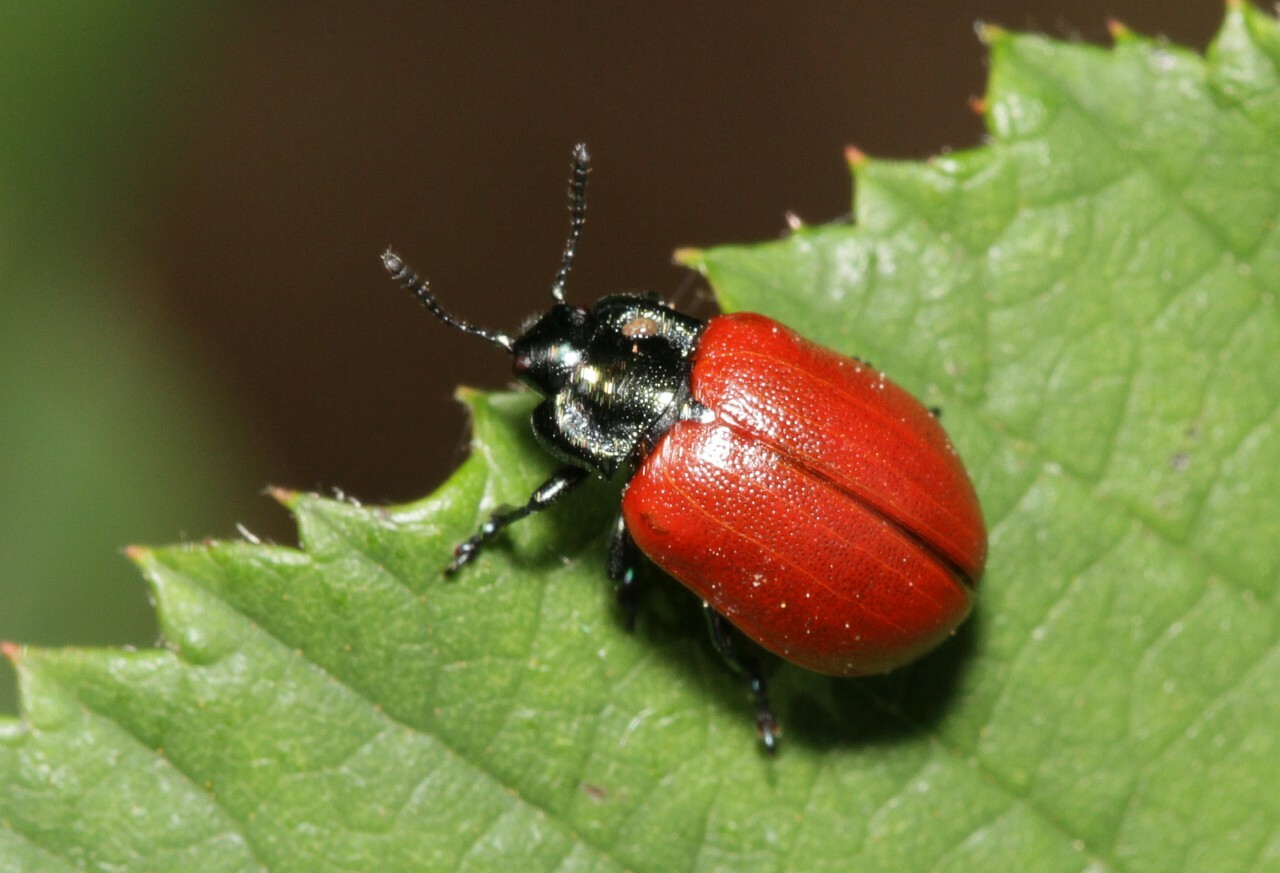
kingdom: Animalia
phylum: Arthropoda
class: Insecta
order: Coleoptera
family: Chrysomelidae
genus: Chrysomela
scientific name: Chrysomela populi
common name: Red poplar leaf beetle
